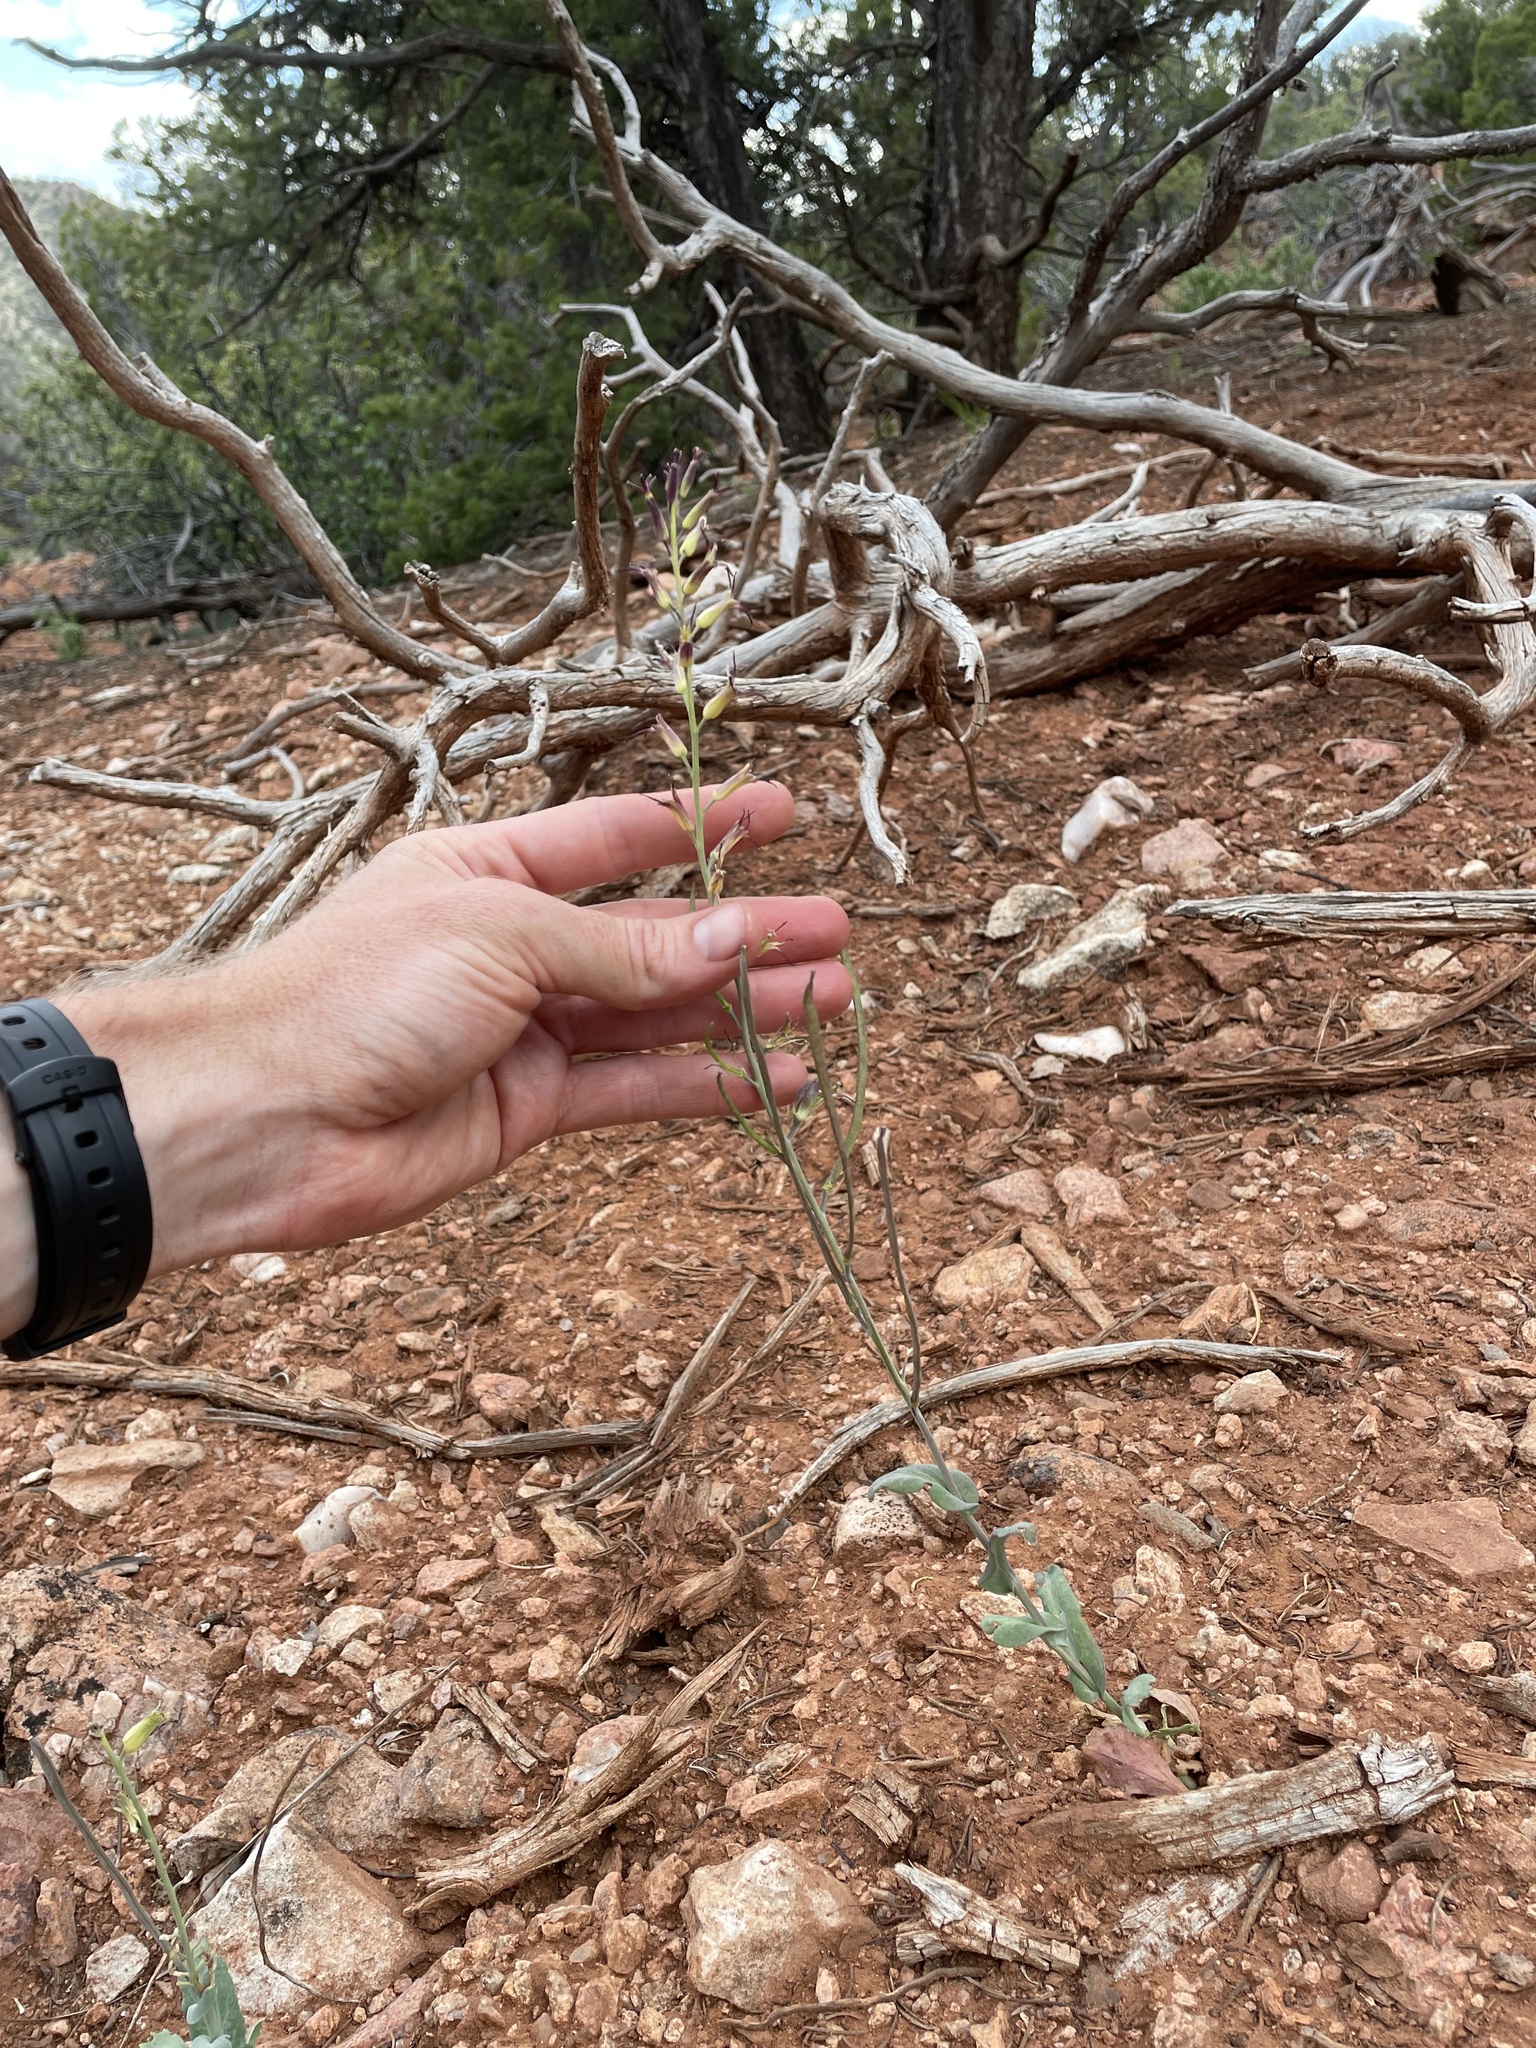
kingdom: Plantae
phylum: Tracheophyta
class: Magnoliopsida
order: Brassicales
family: Brassicaceae
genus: Streptanthus
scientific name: Streptanthus cordatus
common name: Heart-leaf jewel-flower
